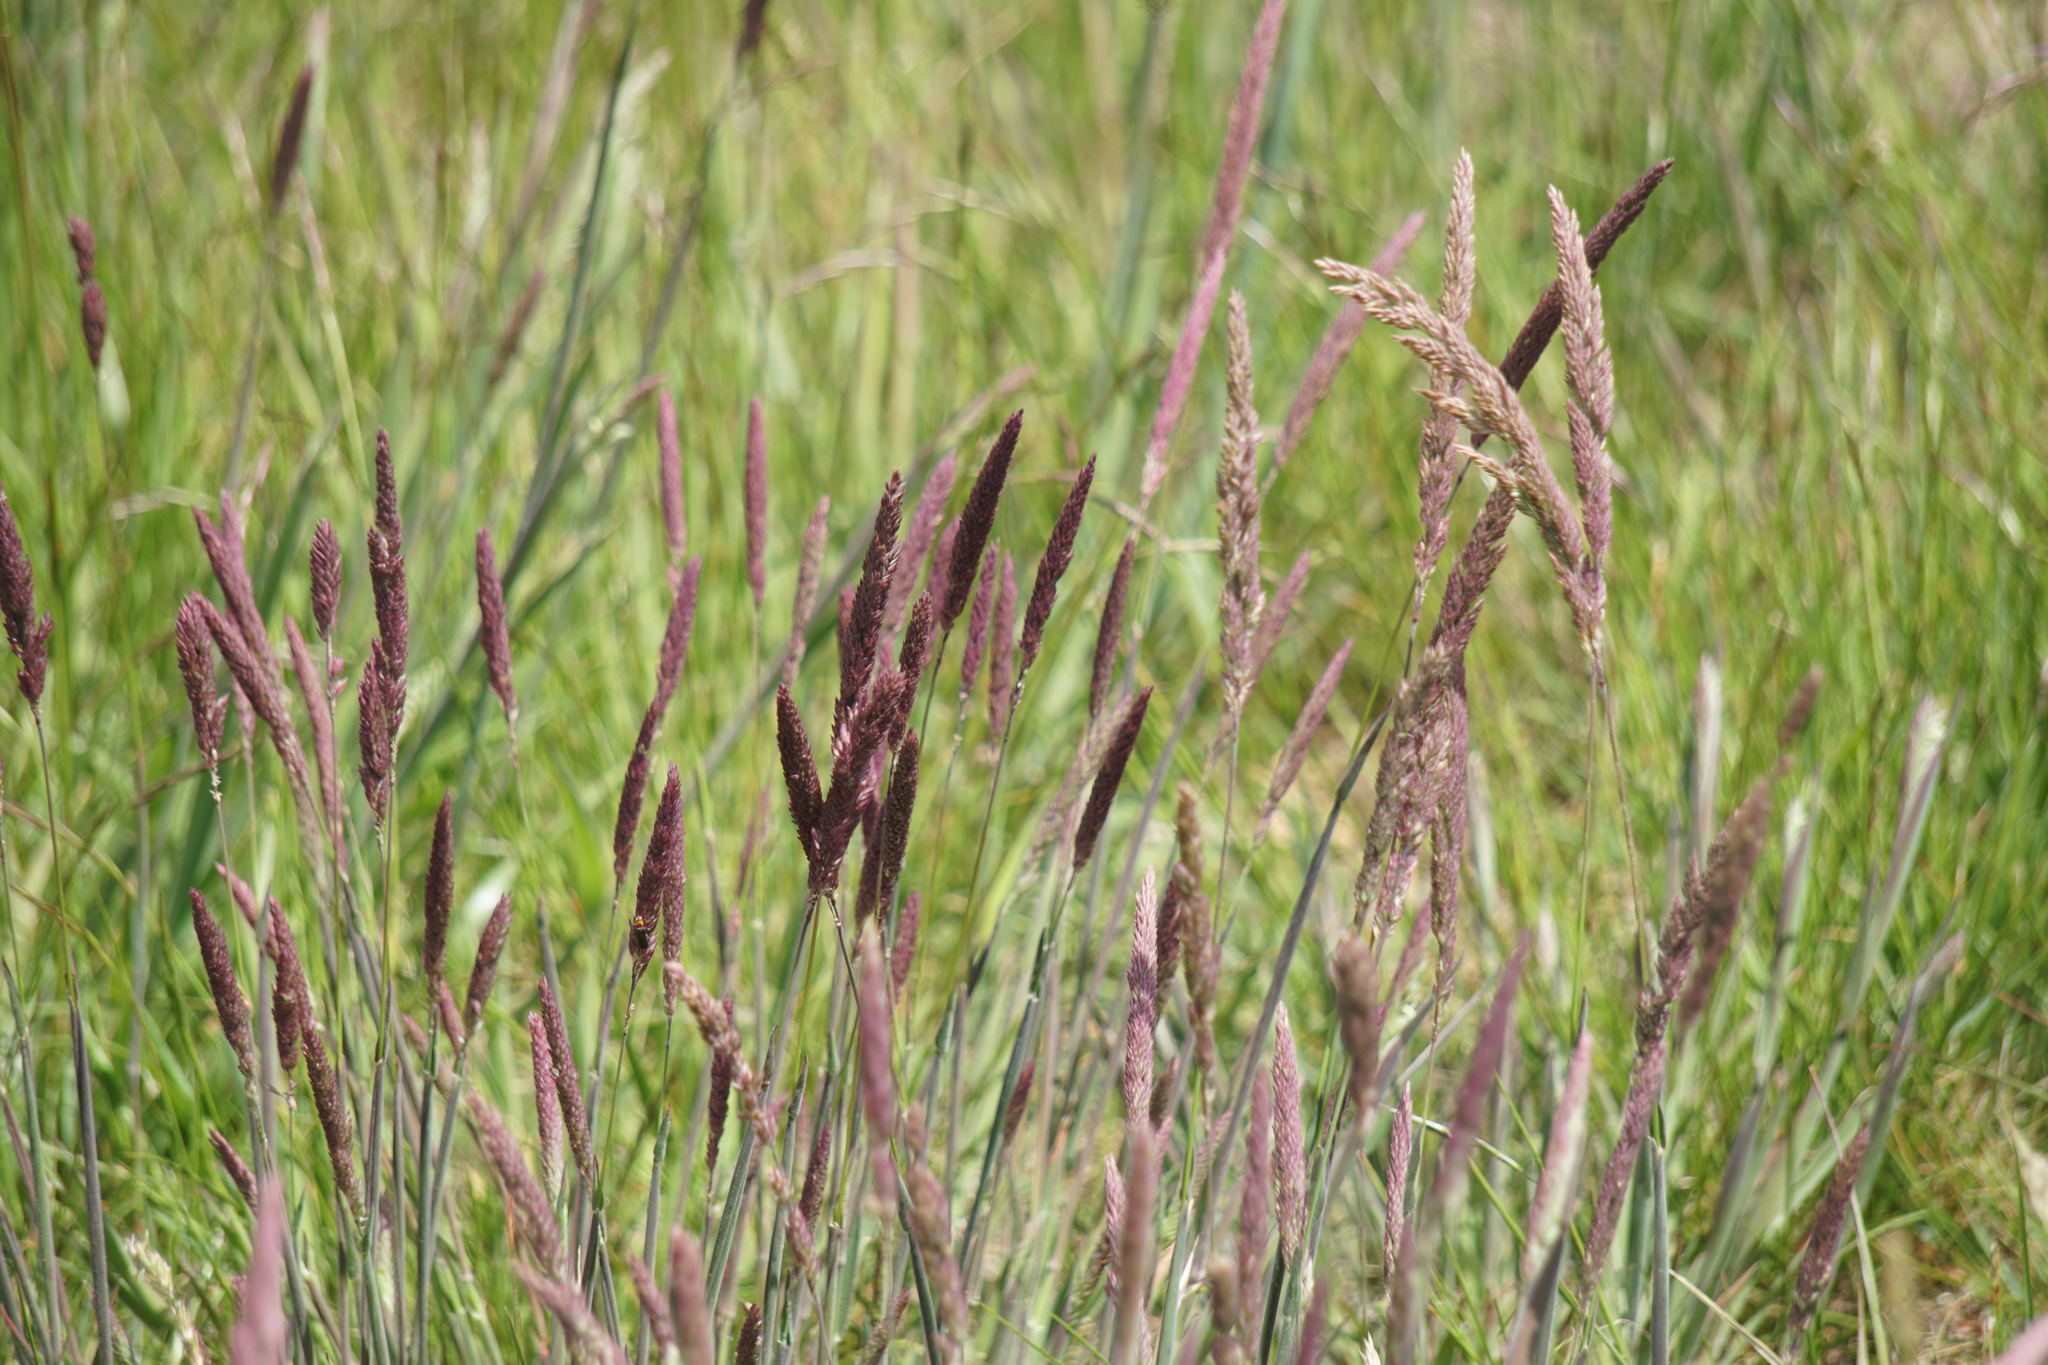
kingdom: Plantae
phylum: Tracheophyta
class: Liliopsida
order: Poales
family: Poaceae
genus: Holcus
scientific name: Holcus lanatus
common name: Yorkshire-fog
